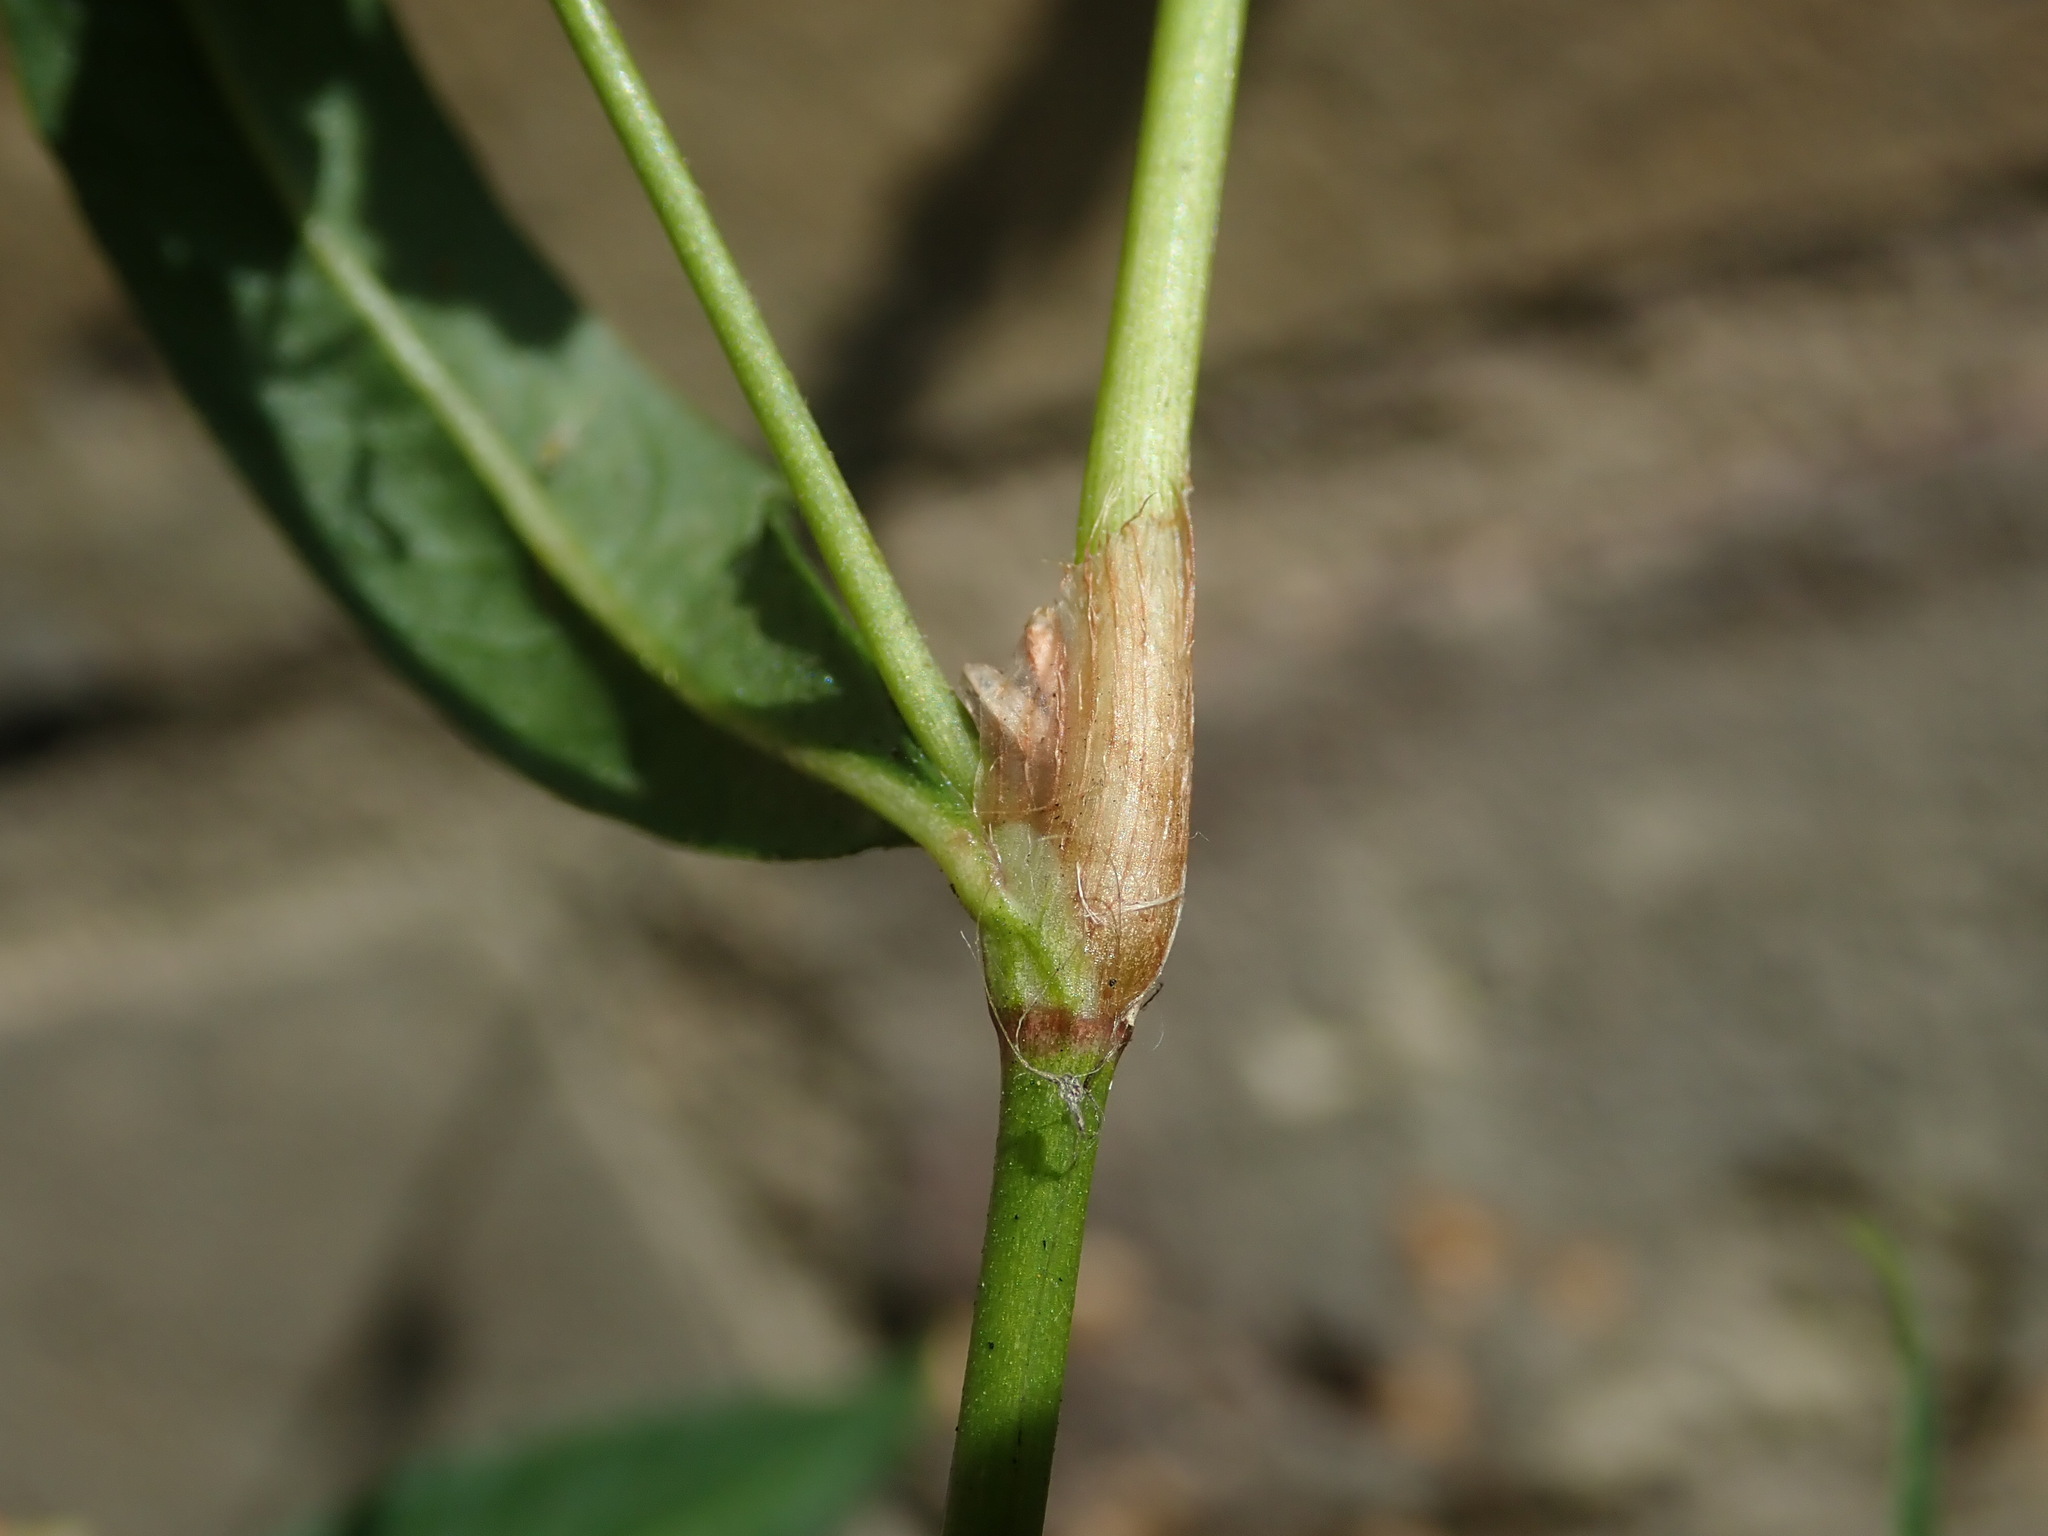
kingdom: Plantae
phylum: Tracheophyta
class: Magnoliopsida
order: Caryophyllales
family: Polygonaceae
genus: Persicaria
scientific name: Persicaria maculosa
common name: Redshank
